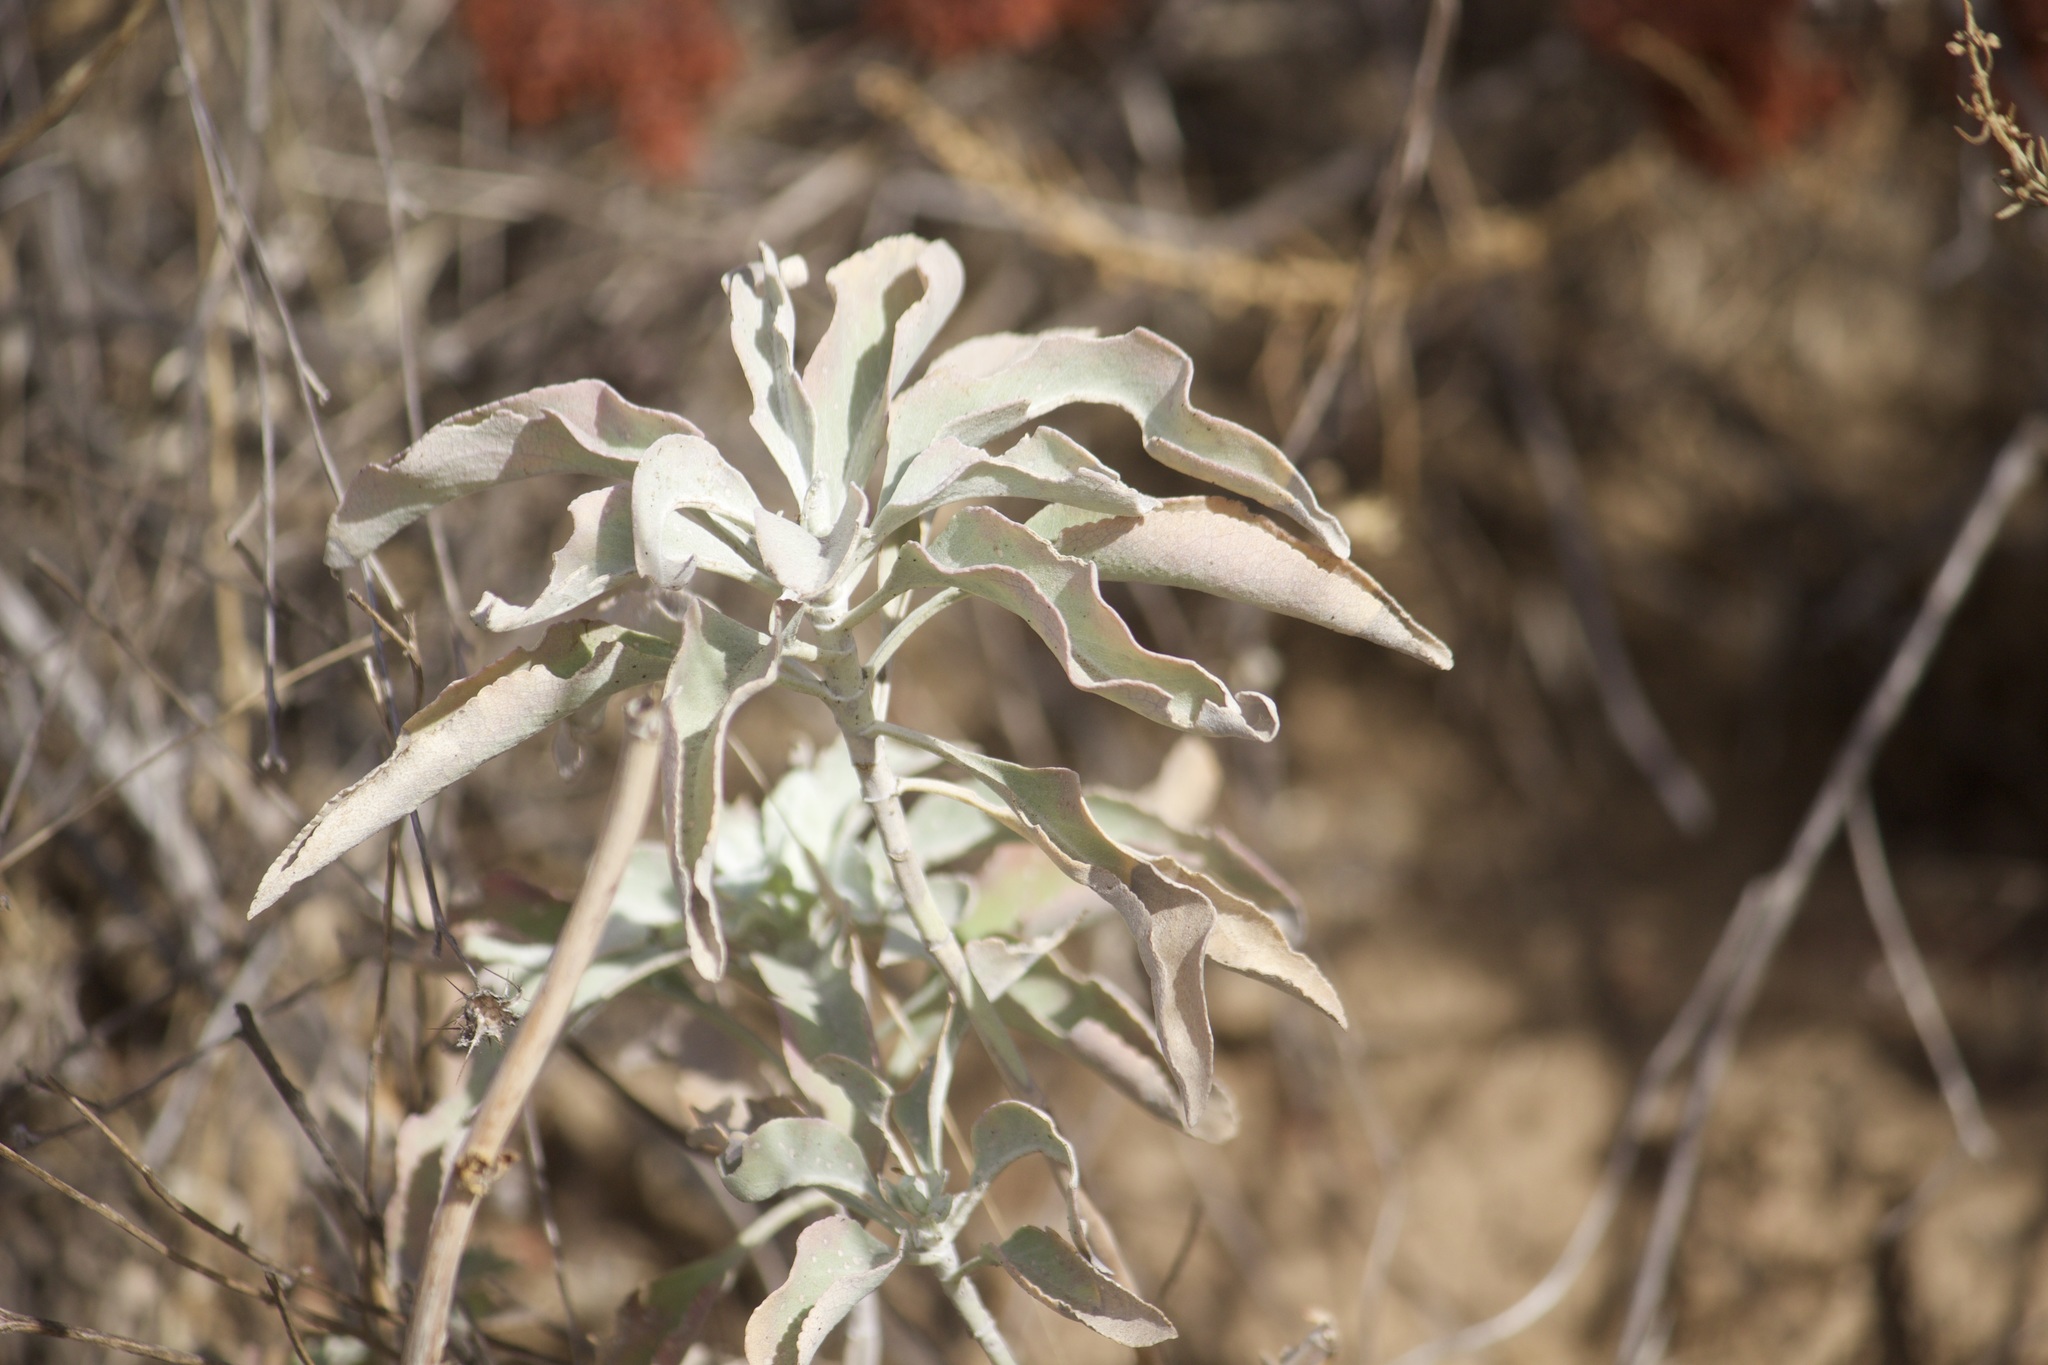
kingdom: Plantae
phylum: Tracheophyta
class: Magnoliopsida
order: Lamiales
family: Lamiaceae
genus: Salvia
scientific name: Salvia apiana
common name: White sage
